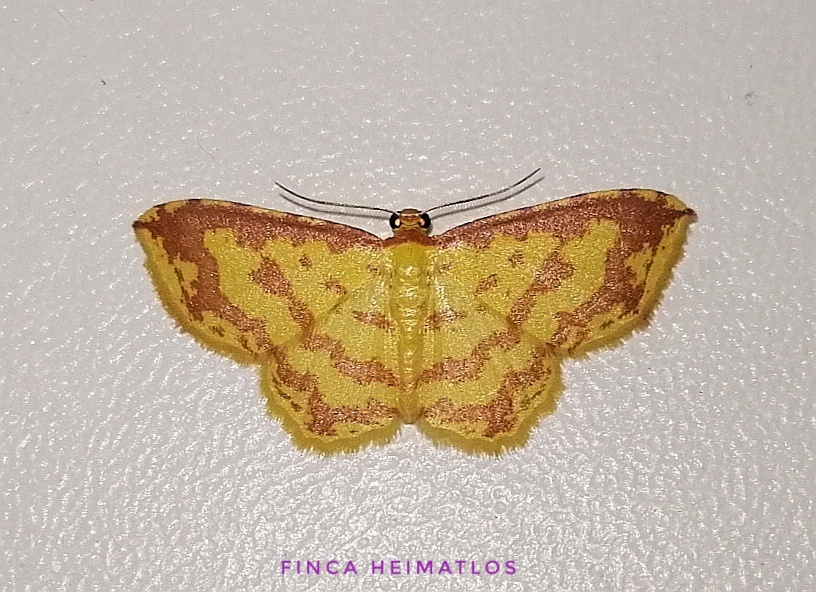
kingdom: Animalia
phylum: Arthropoda
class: Insecta
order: Lepidoptera
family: Geometridae
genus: Eois
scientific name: Eois pararussearia
